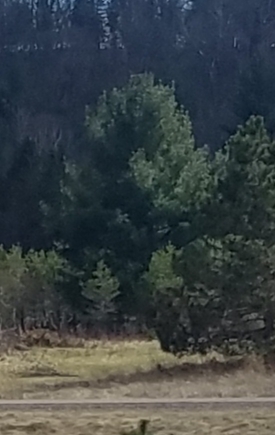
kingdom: Plantae
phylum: Tracheophyta
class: Pinopsida
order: Pinales
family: Pinaceae
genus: Pinus
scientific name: Pinus strobus
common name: Weymouth pine
